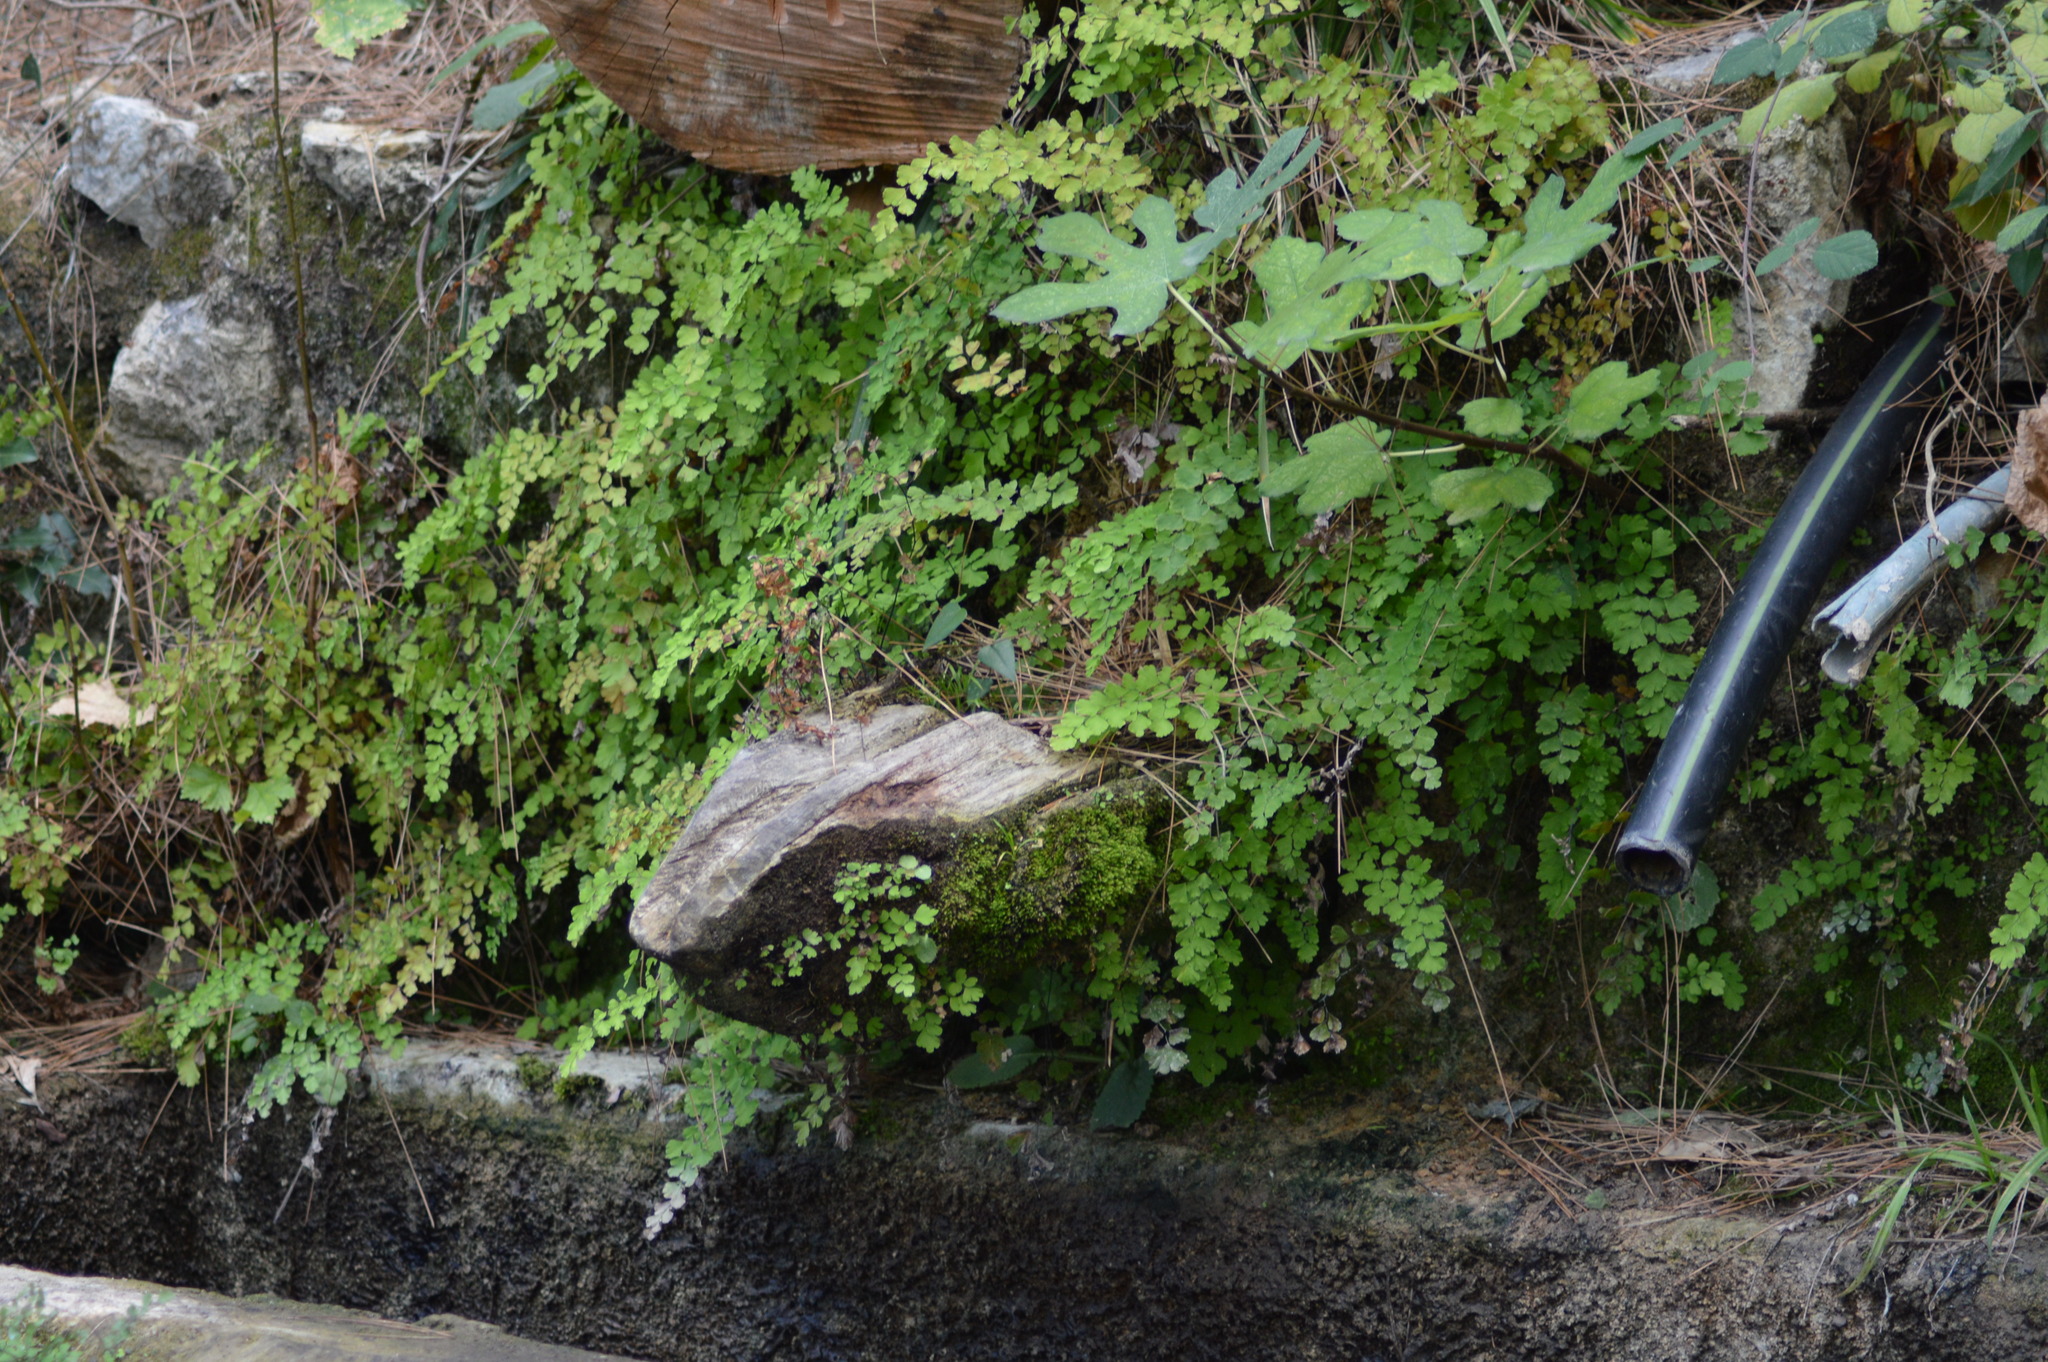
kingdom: Plantae
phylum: Tracheophyta
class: Polypodiopsida
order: Polypodiales
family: Pteridaceae
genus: Adiantum
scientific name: Adiantum capillus-veneris
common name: Maidenhair fern
